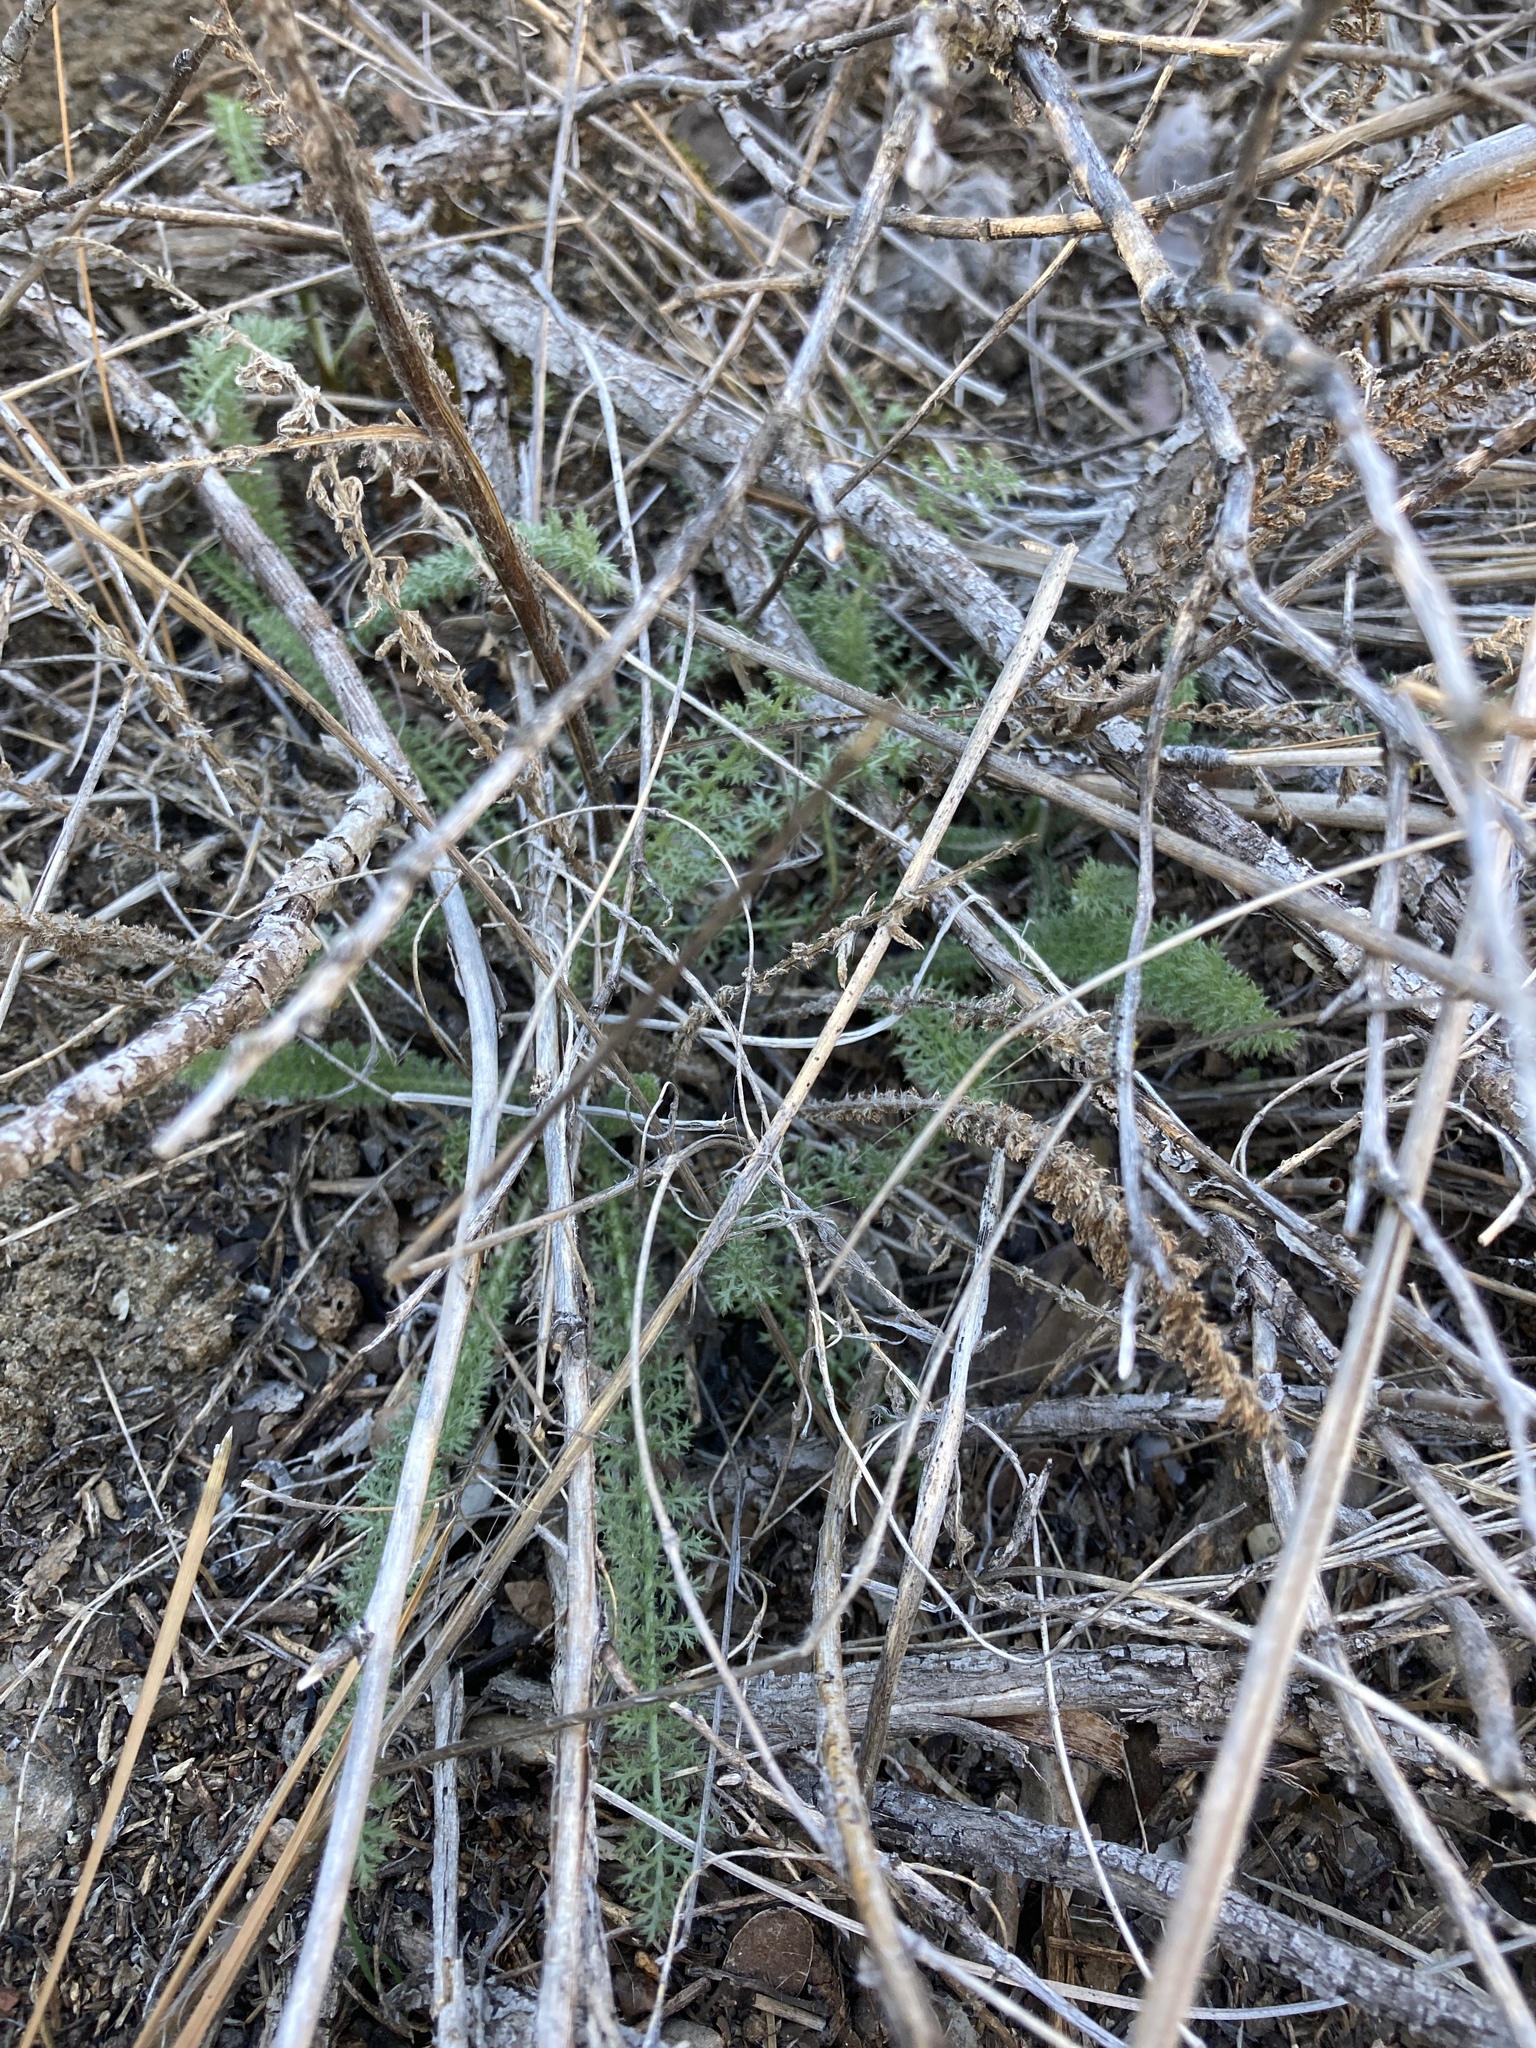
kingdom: Plantae
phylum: Tracheophyta
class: Magnoliopsida
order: Asterales
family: Asteraceae
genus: Achillea
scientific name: Achillea millefolium
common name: Yarrow
